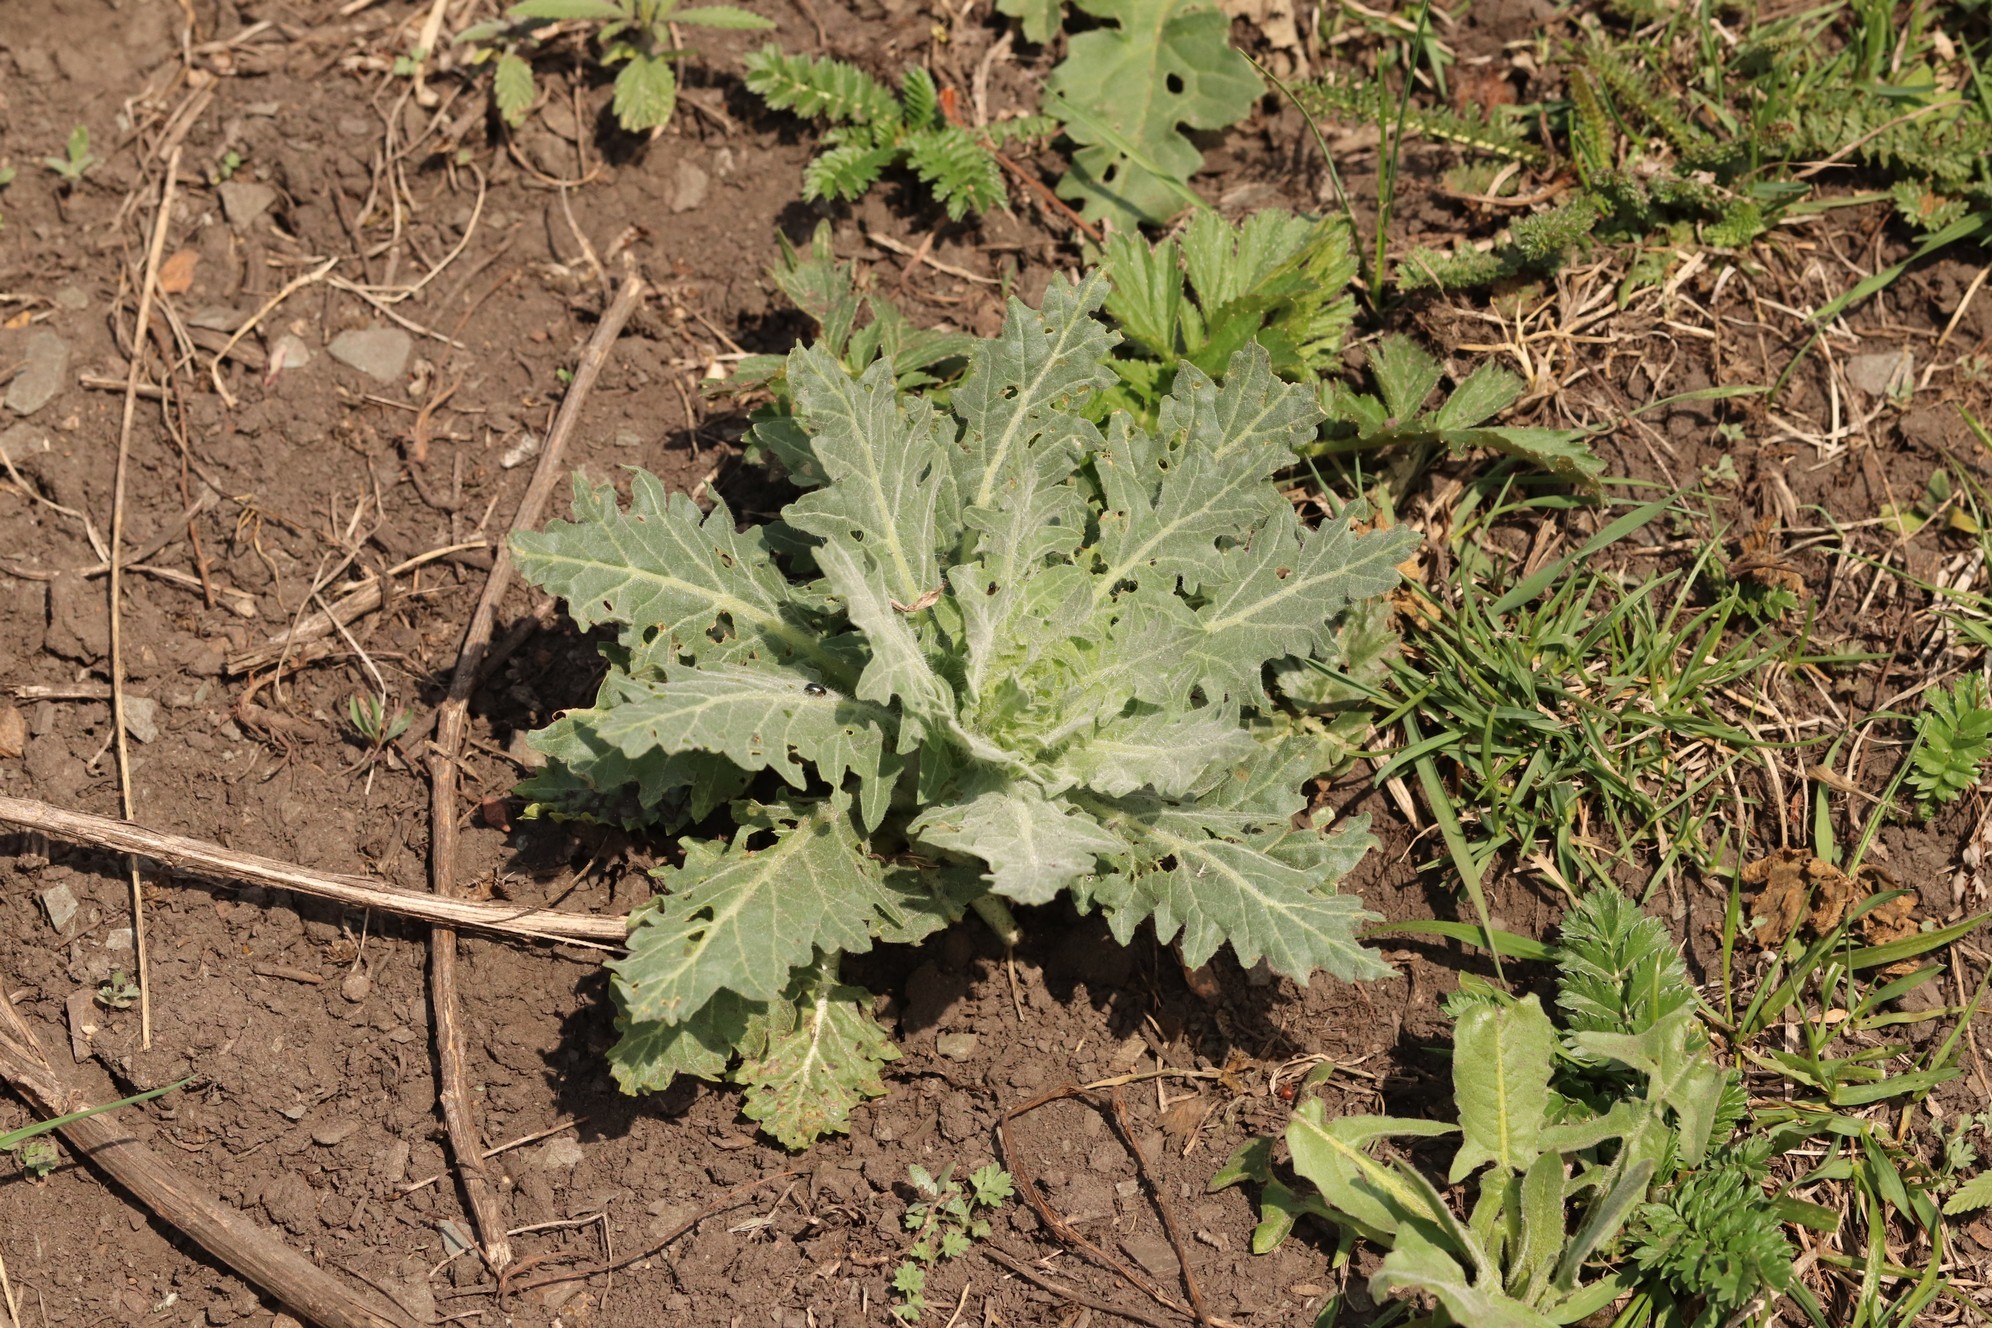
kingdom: Plantae
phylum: Tracheophyta
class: Magnoliopsida
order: Solanales
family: Solanaceae
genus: Hyoscyamus
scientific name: Hyoscyamus niger
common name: Henbane
